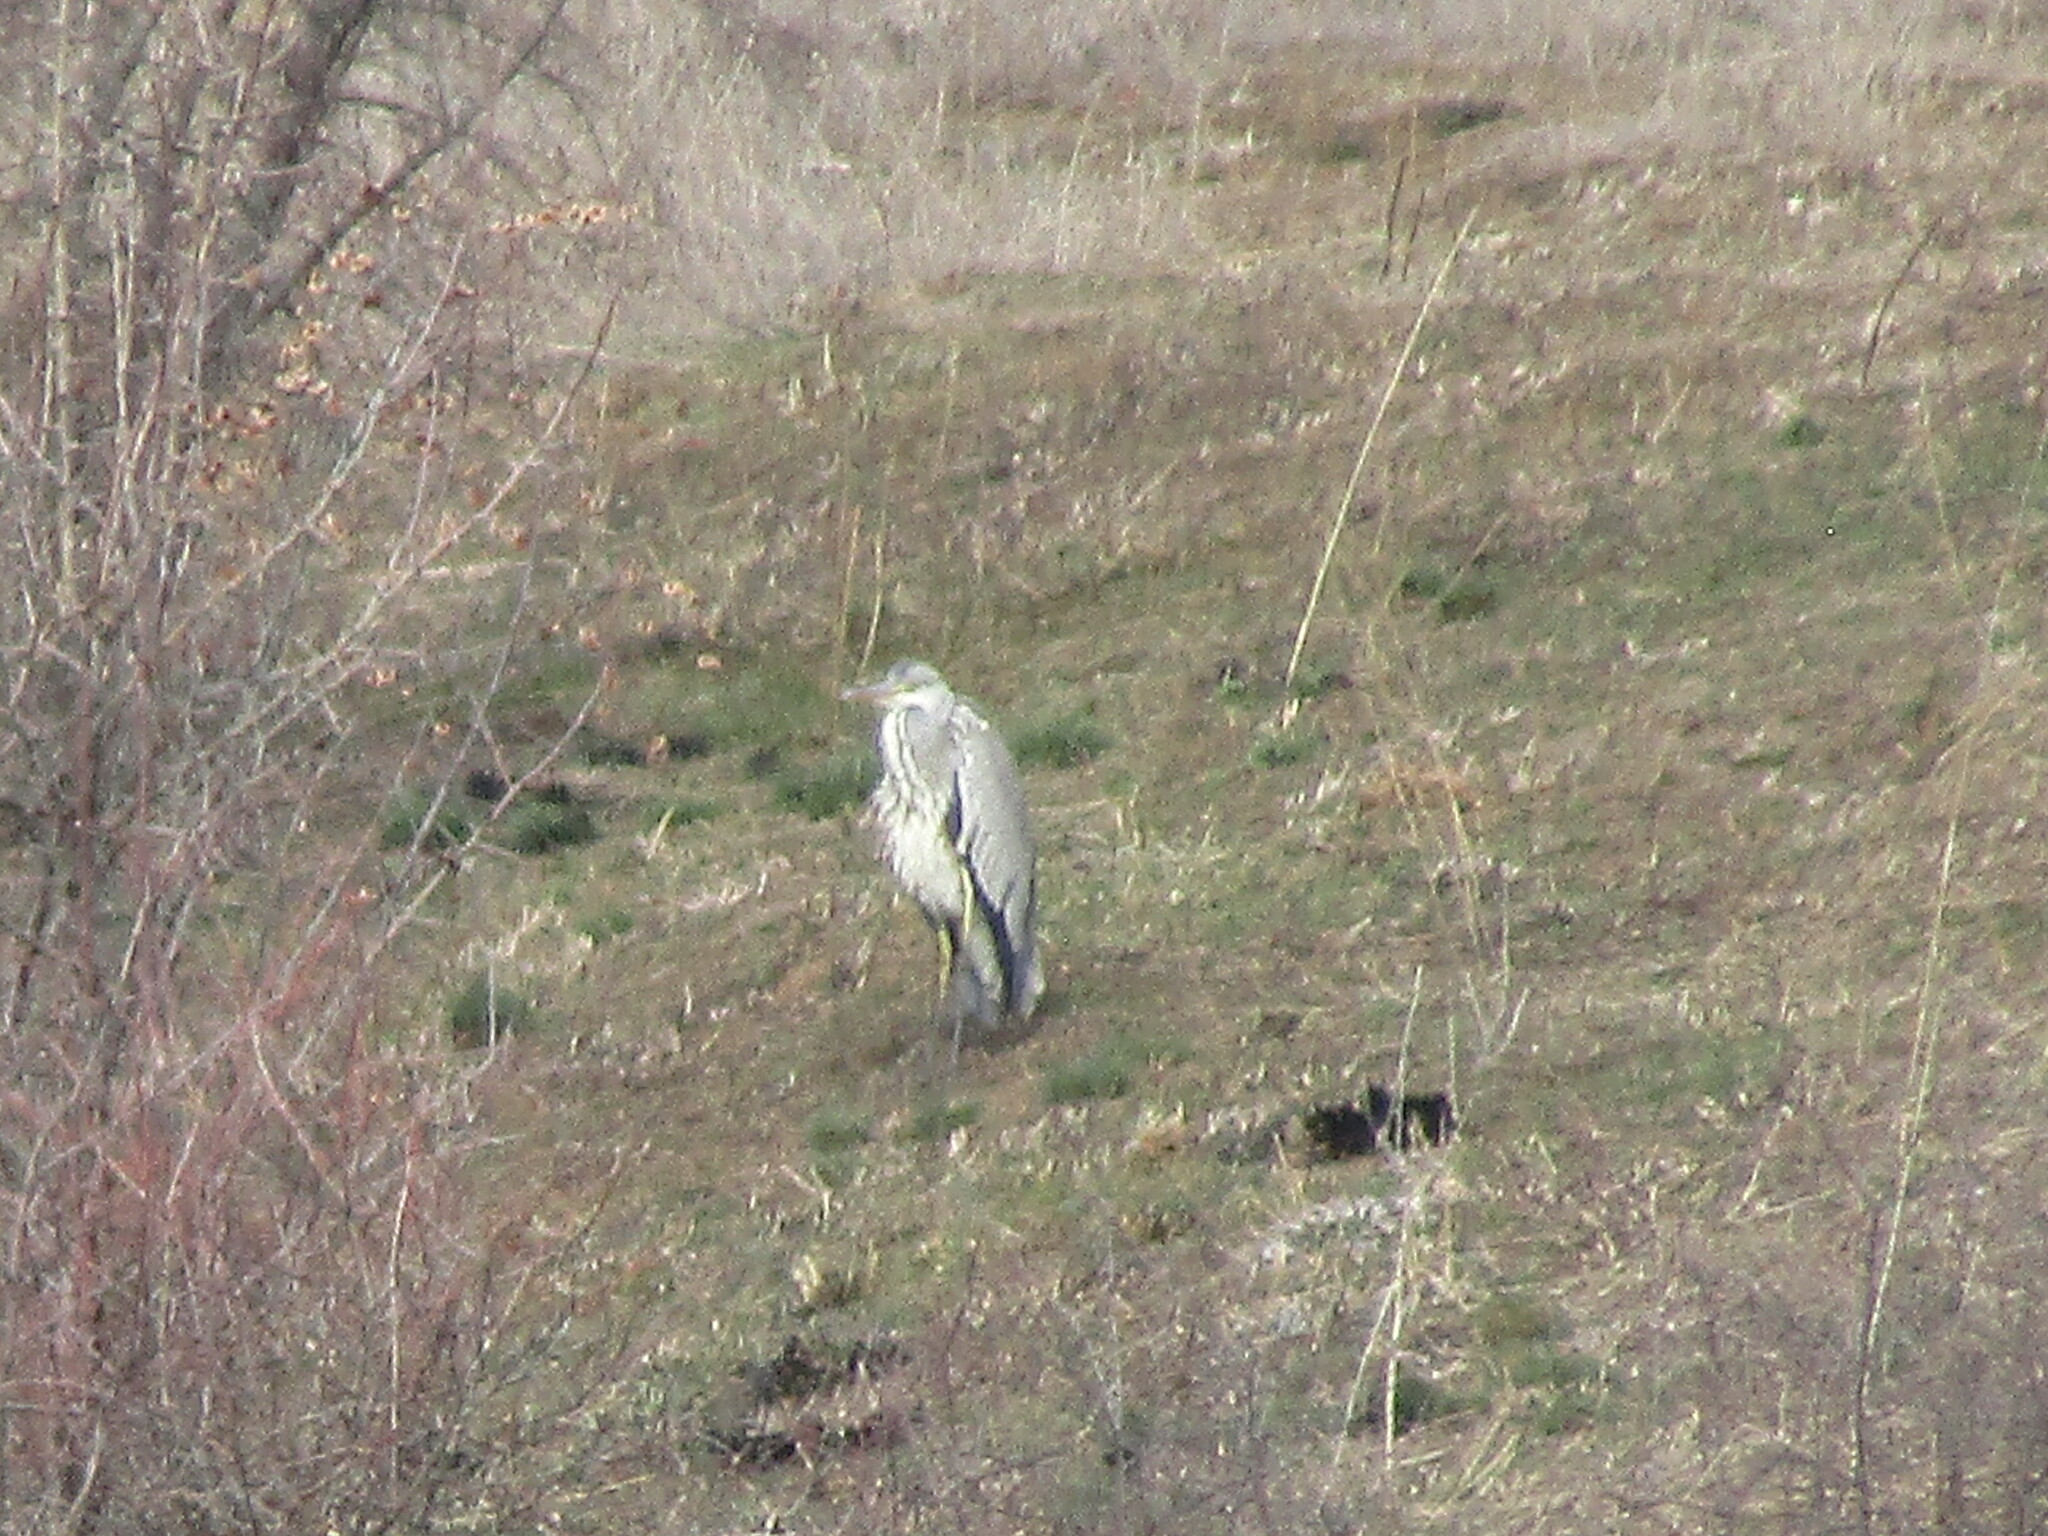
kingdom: Animalia
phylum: Chordata
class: Aves
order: Pelecaniformes
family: Ardeidae
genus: Ardea
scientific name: Ardea cinerea
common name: Grey heron
